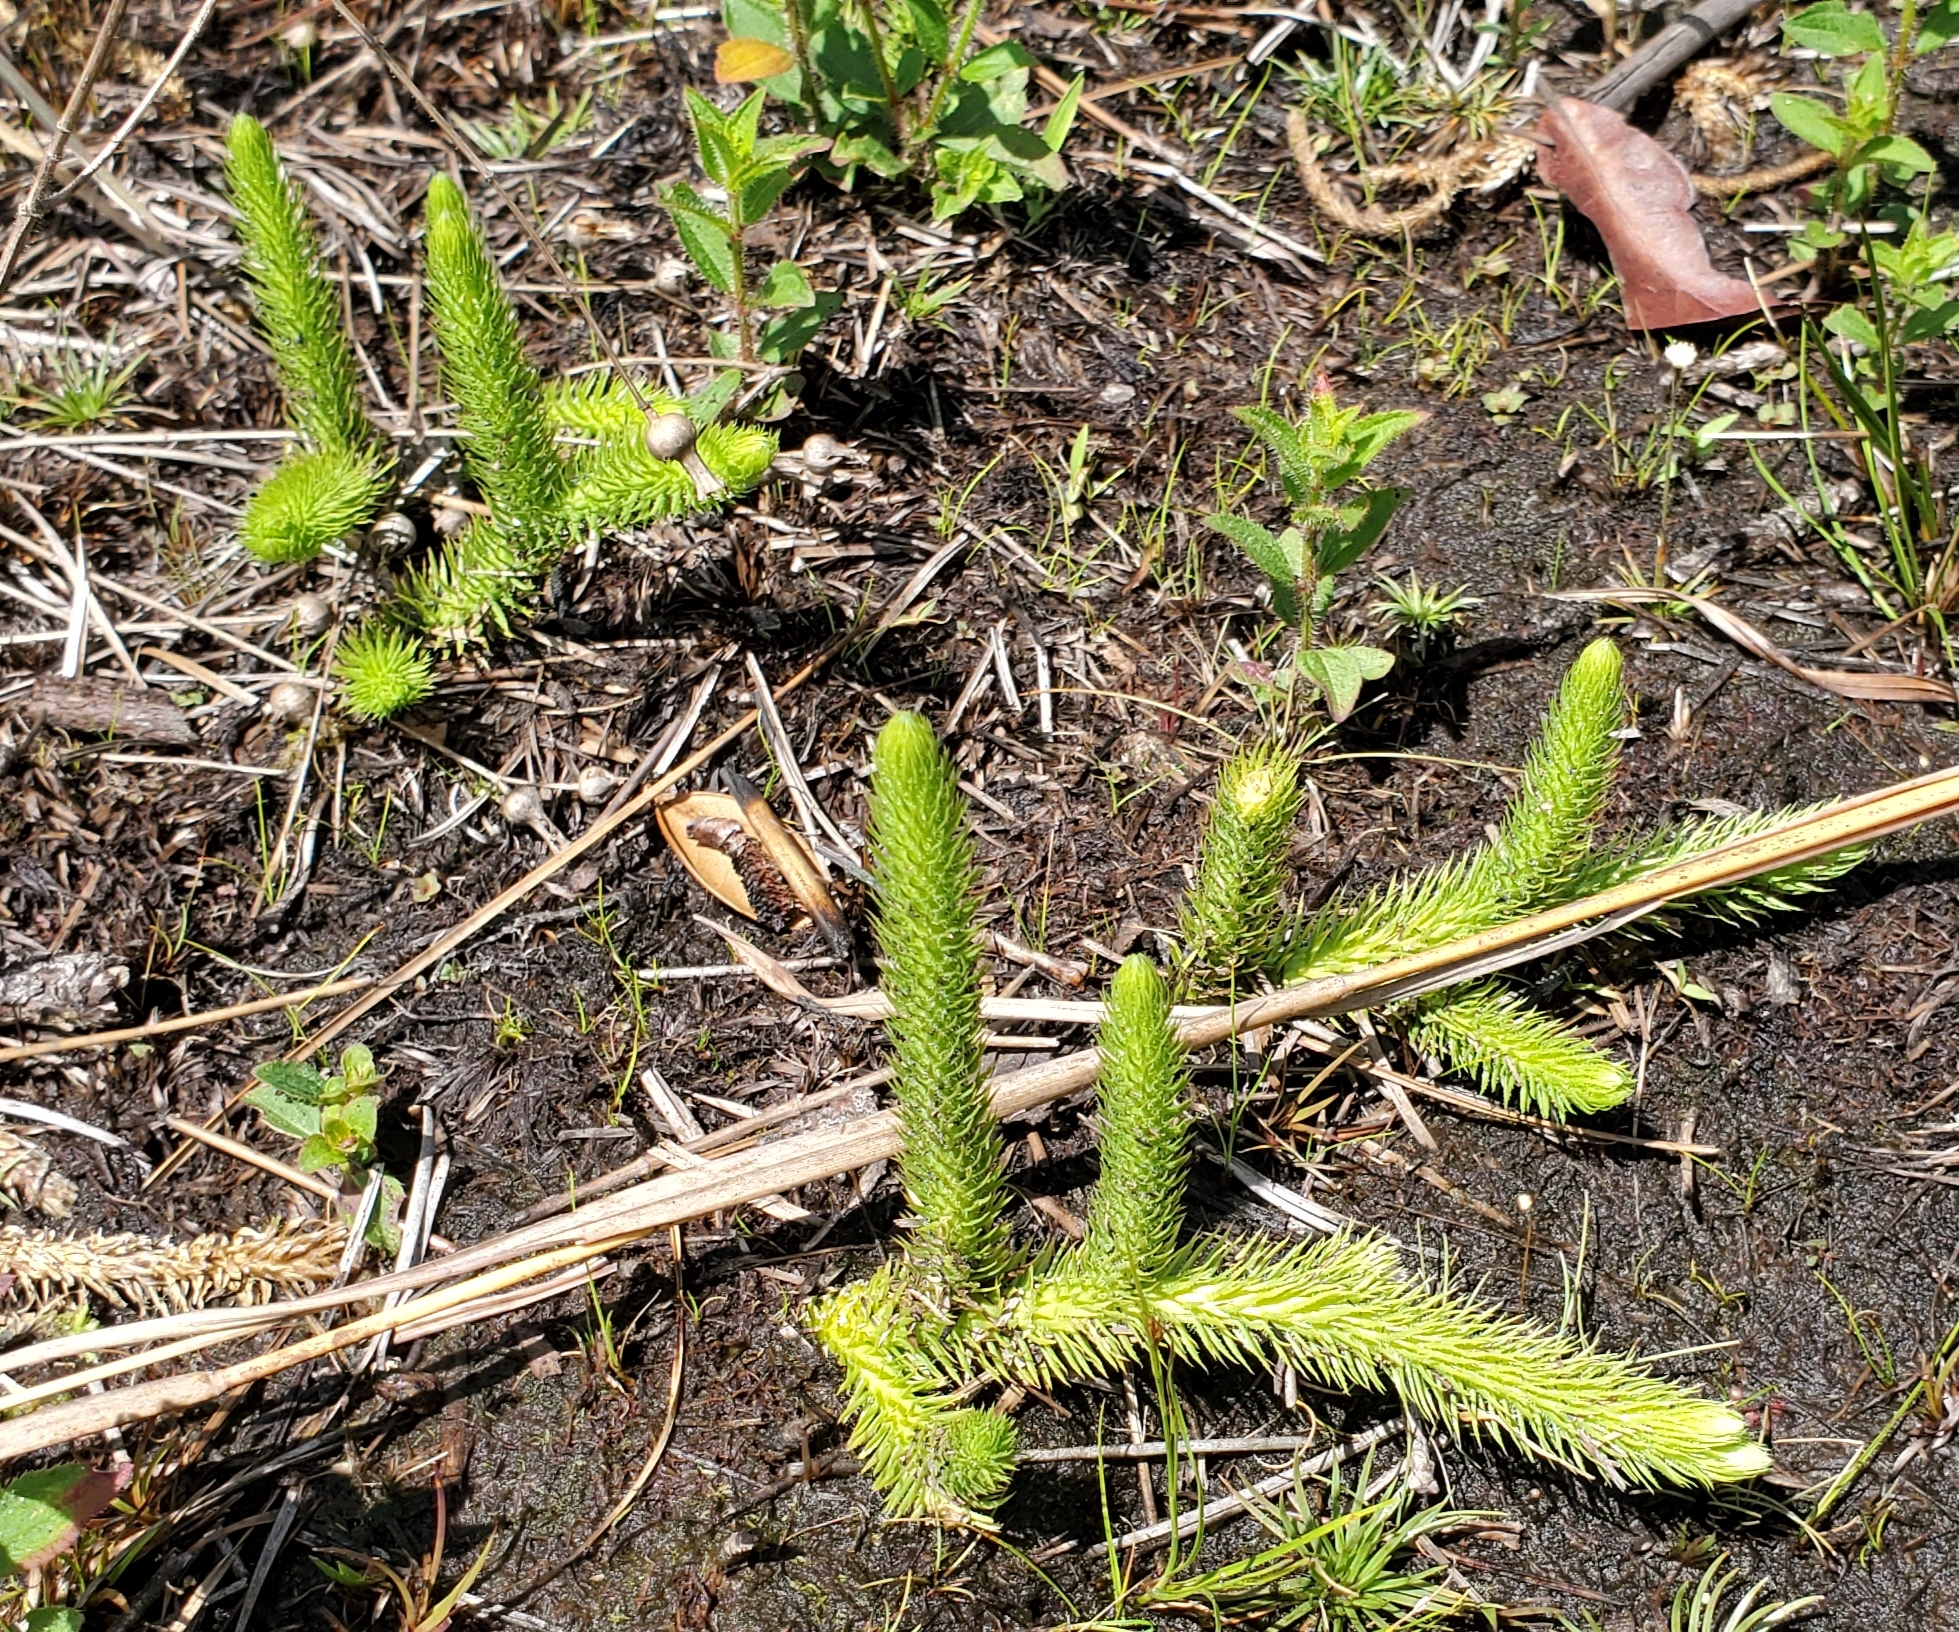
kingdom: Plantae
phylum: Tracheophyta
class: Lycopodiopsida
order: Lycopodiales
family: Lycopodiaceae
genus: Lycopodiella
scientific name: Lycopodiella alopecuroides
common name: Foxtail clubmoss
